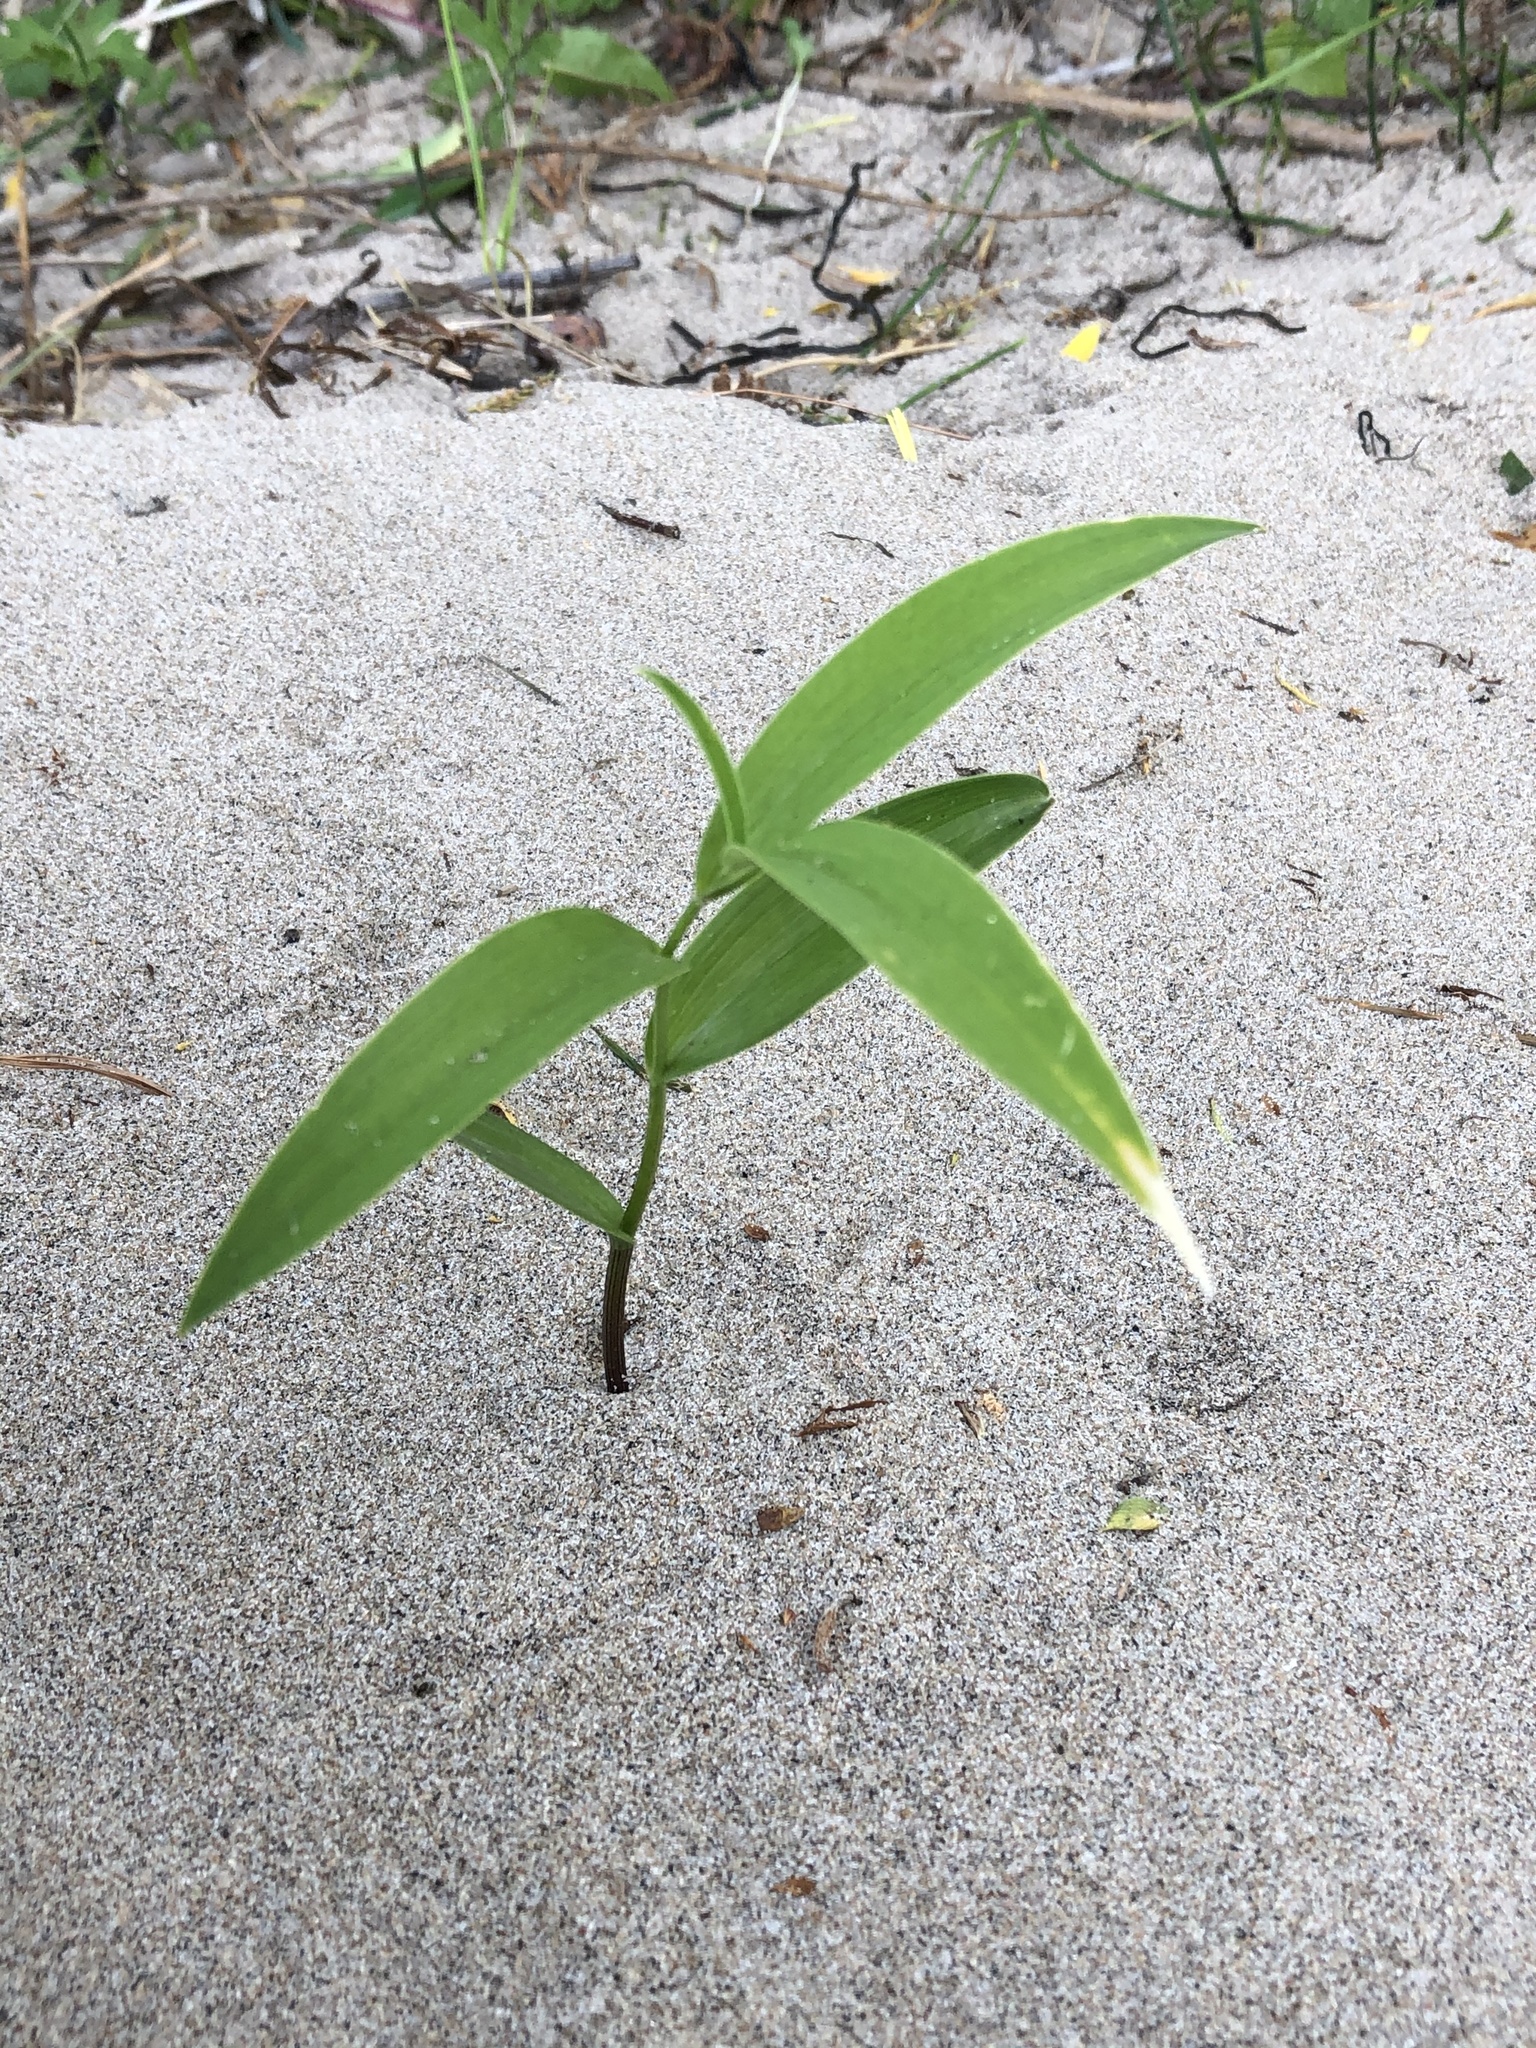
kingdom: Plantae
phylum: Tracheophyta
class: Liliopsida
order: Asparagales
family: Asparagaceae
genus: Maianthemum
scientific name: Maianthemum stellatum
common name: Little false solomon's seal
